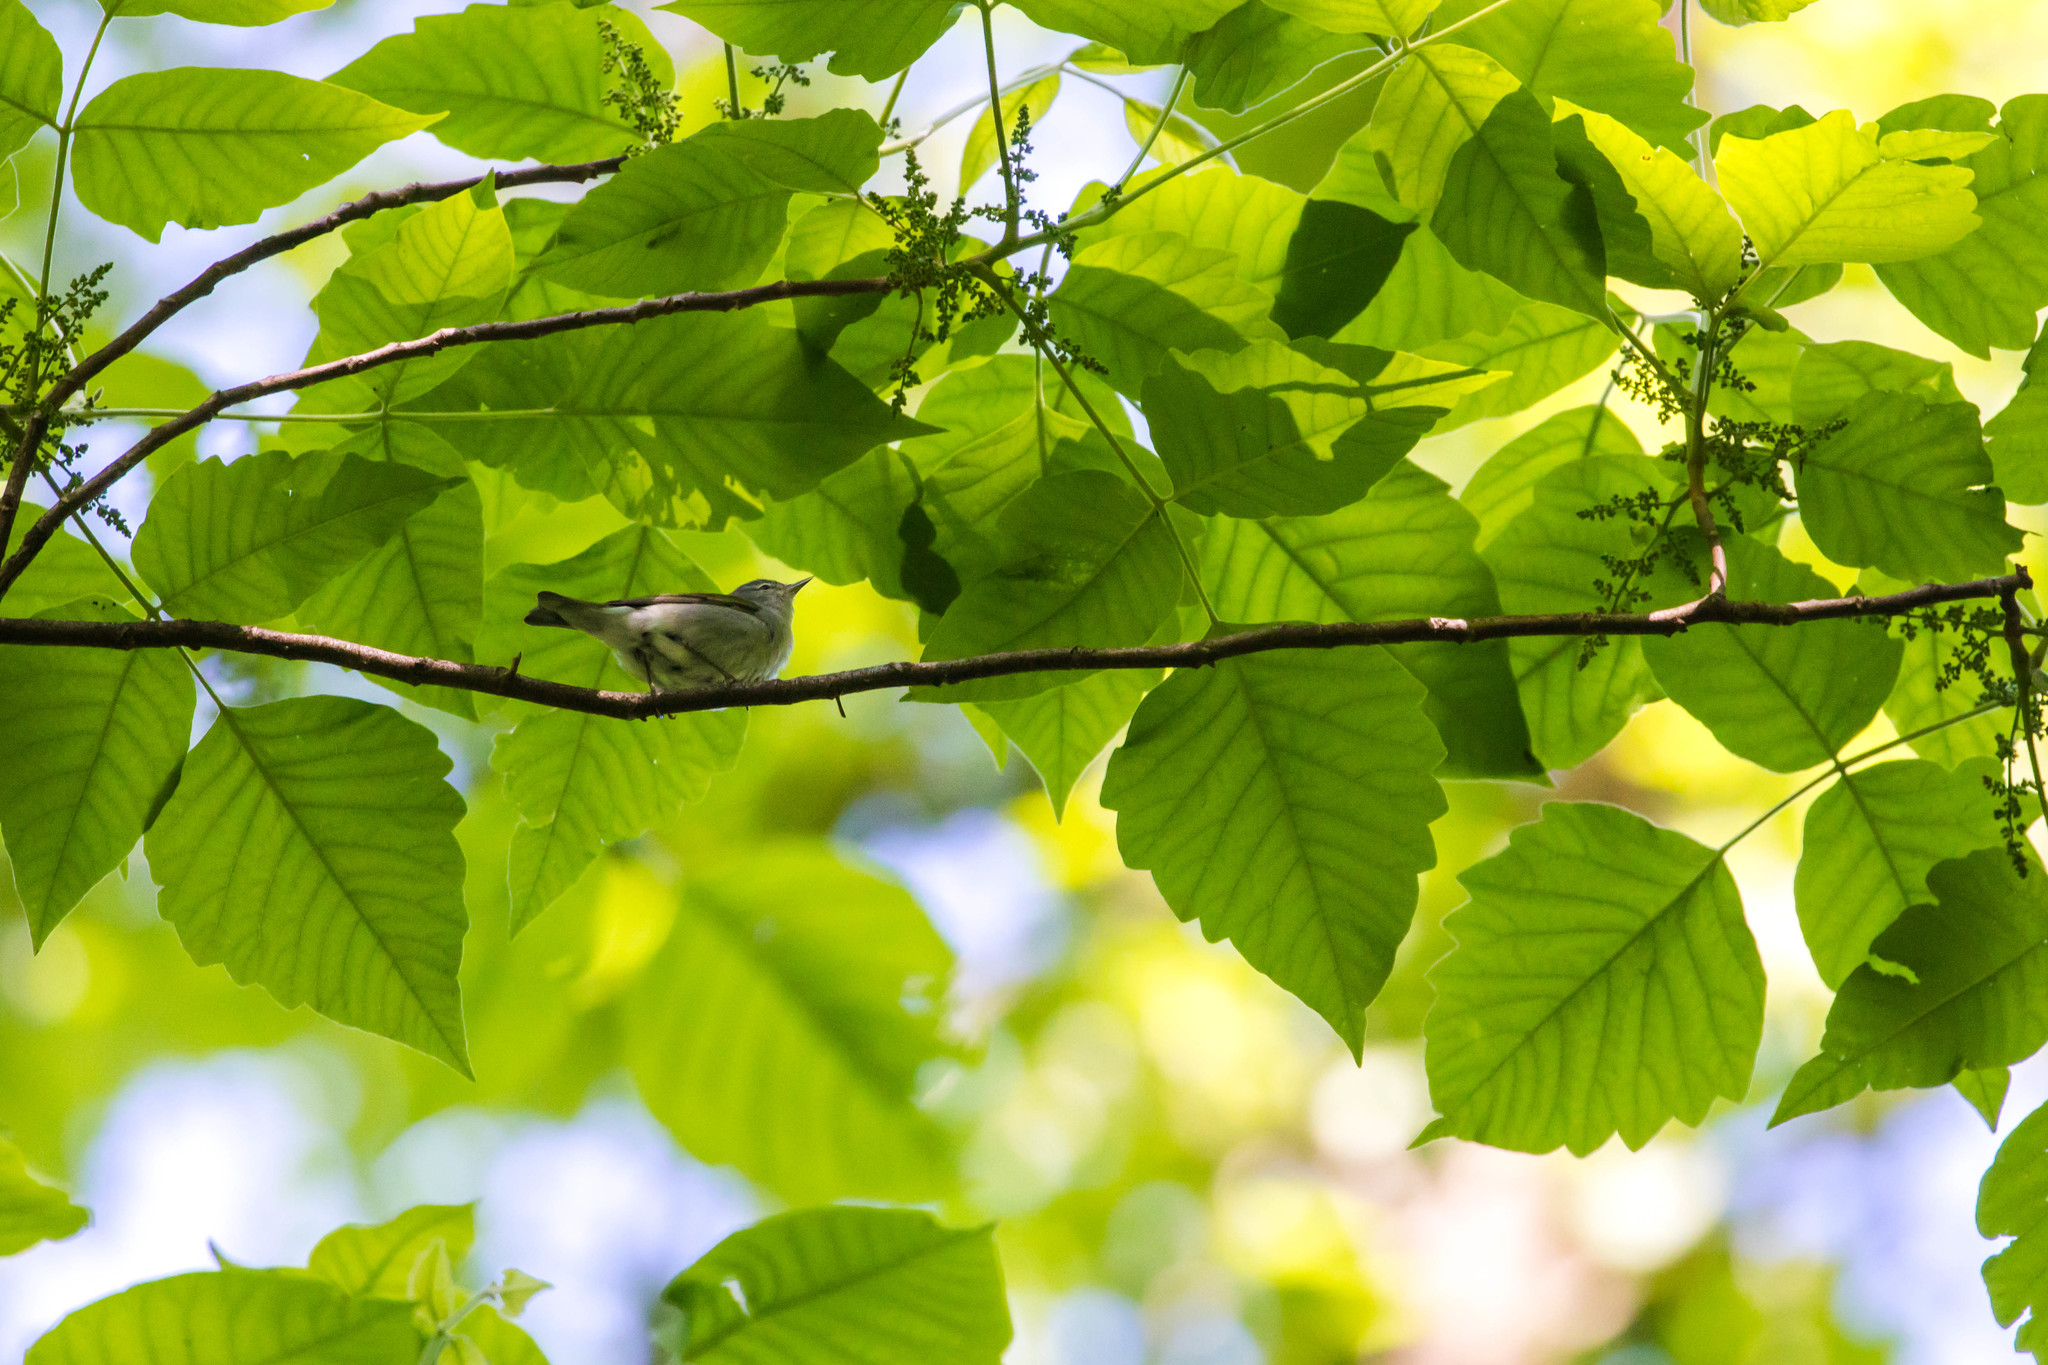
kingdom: Animalia
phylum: Chordata
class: Aves
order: Passeriformes
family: Parulidae
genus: Leiothlypis
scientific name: Leiothlypis peregrina
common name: Tennessee warbler
